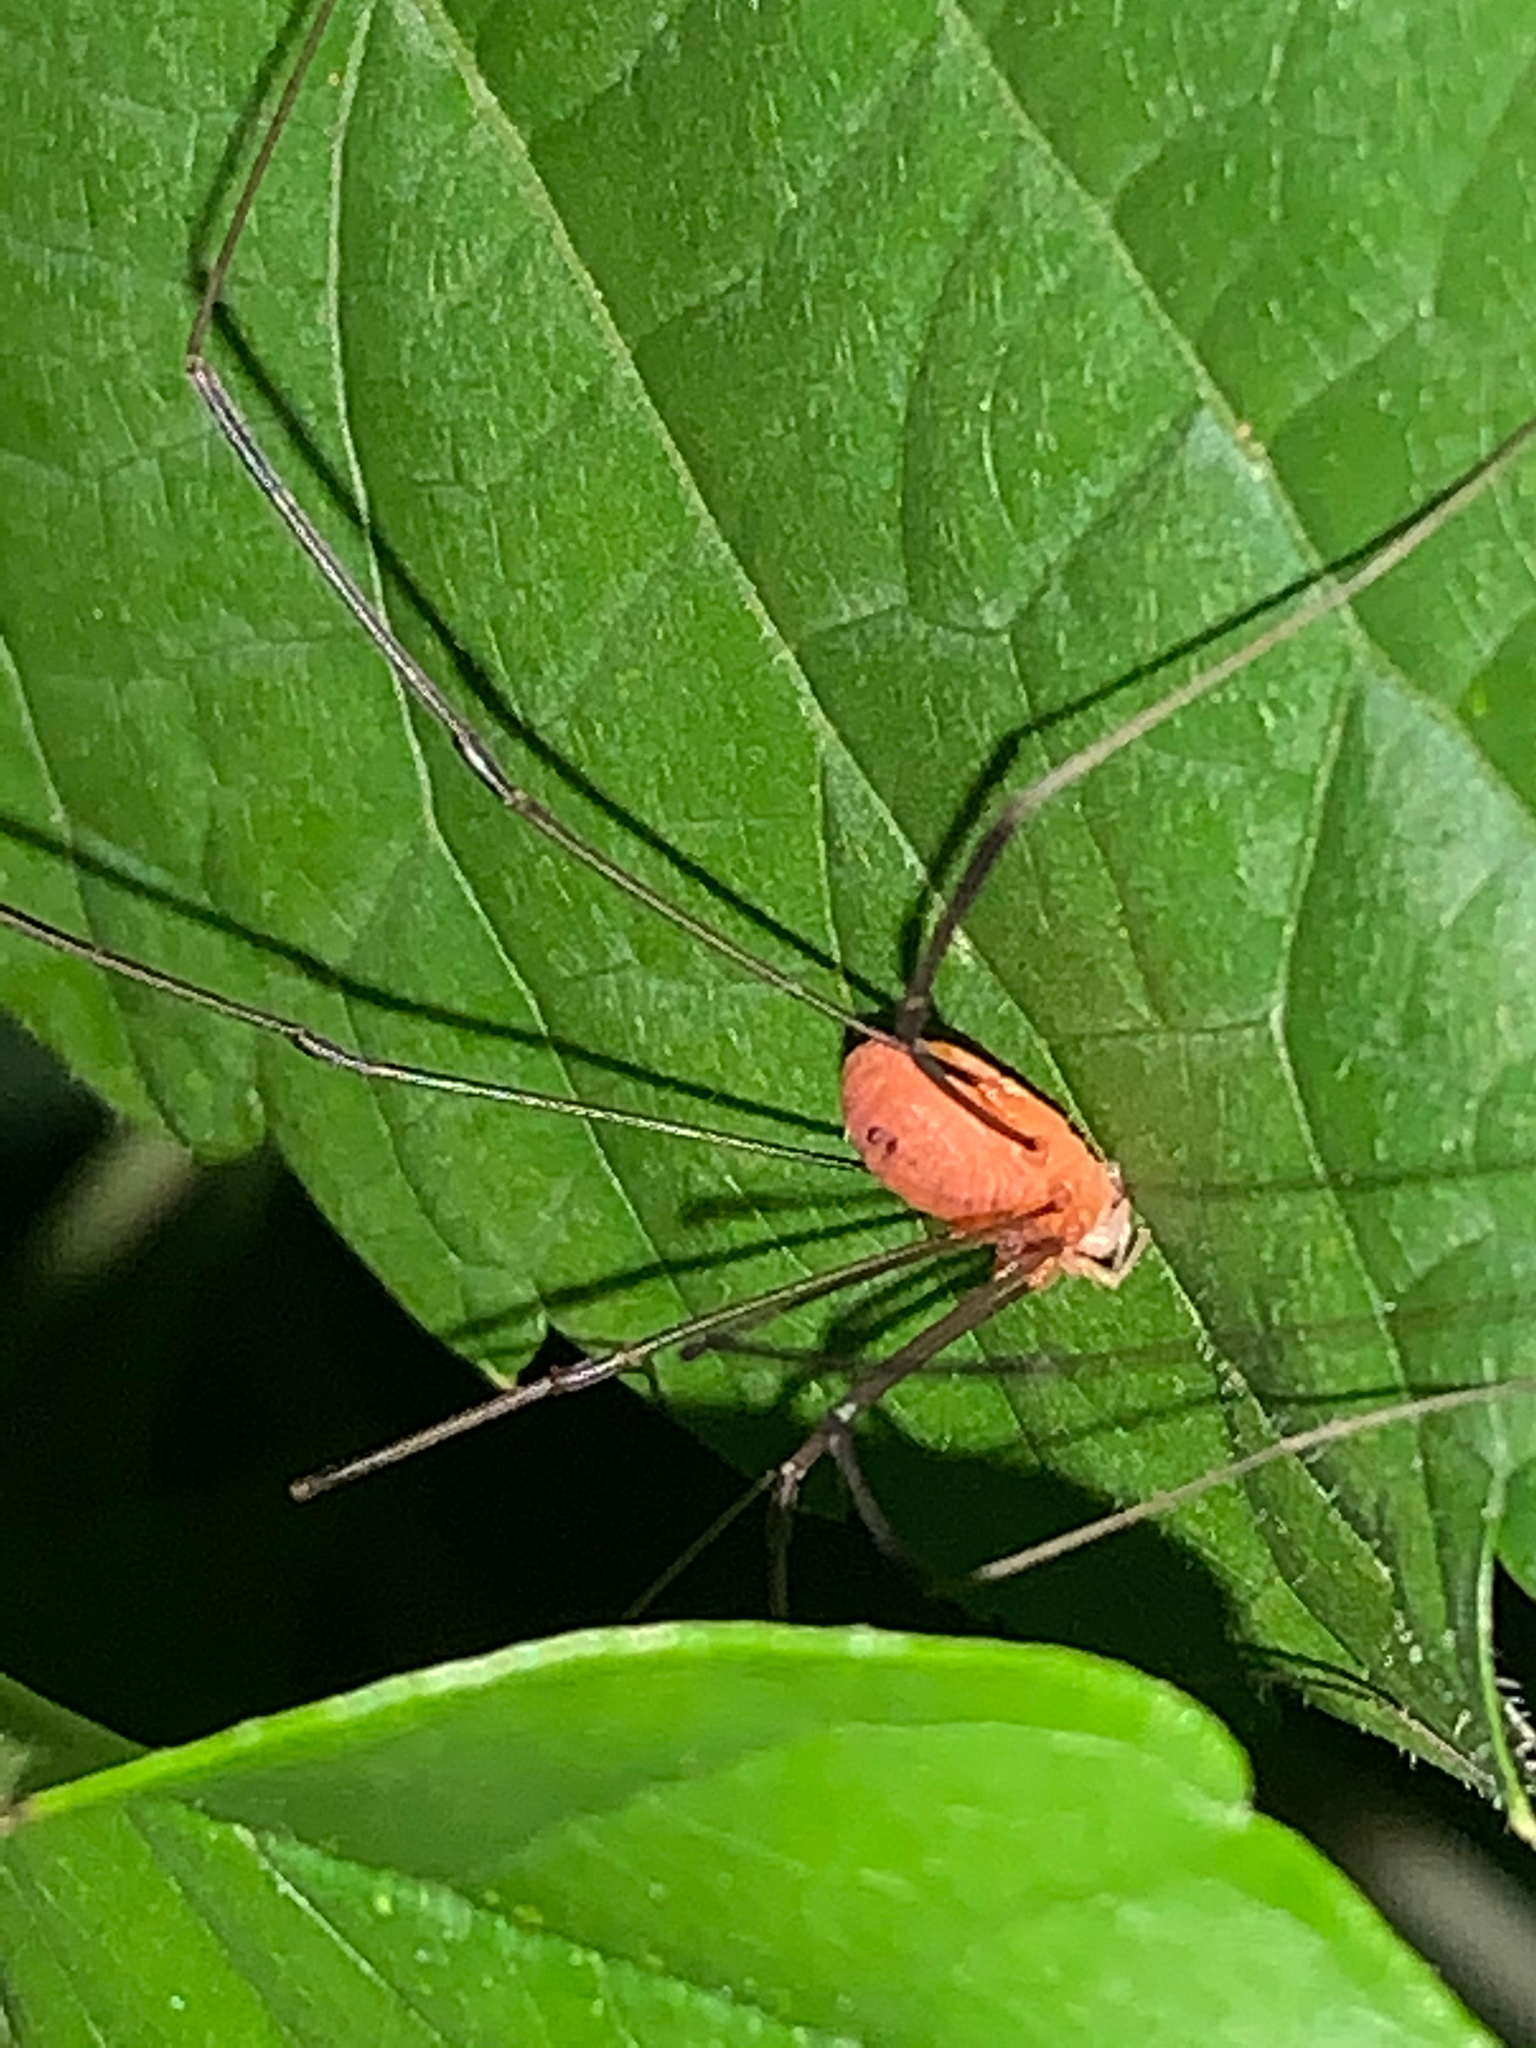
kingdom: Animalia
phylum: Arthropoda
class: Arachnida
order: Opiliones
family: Sclerosomatidae
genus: Leiobunum
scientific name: Leiobunum
